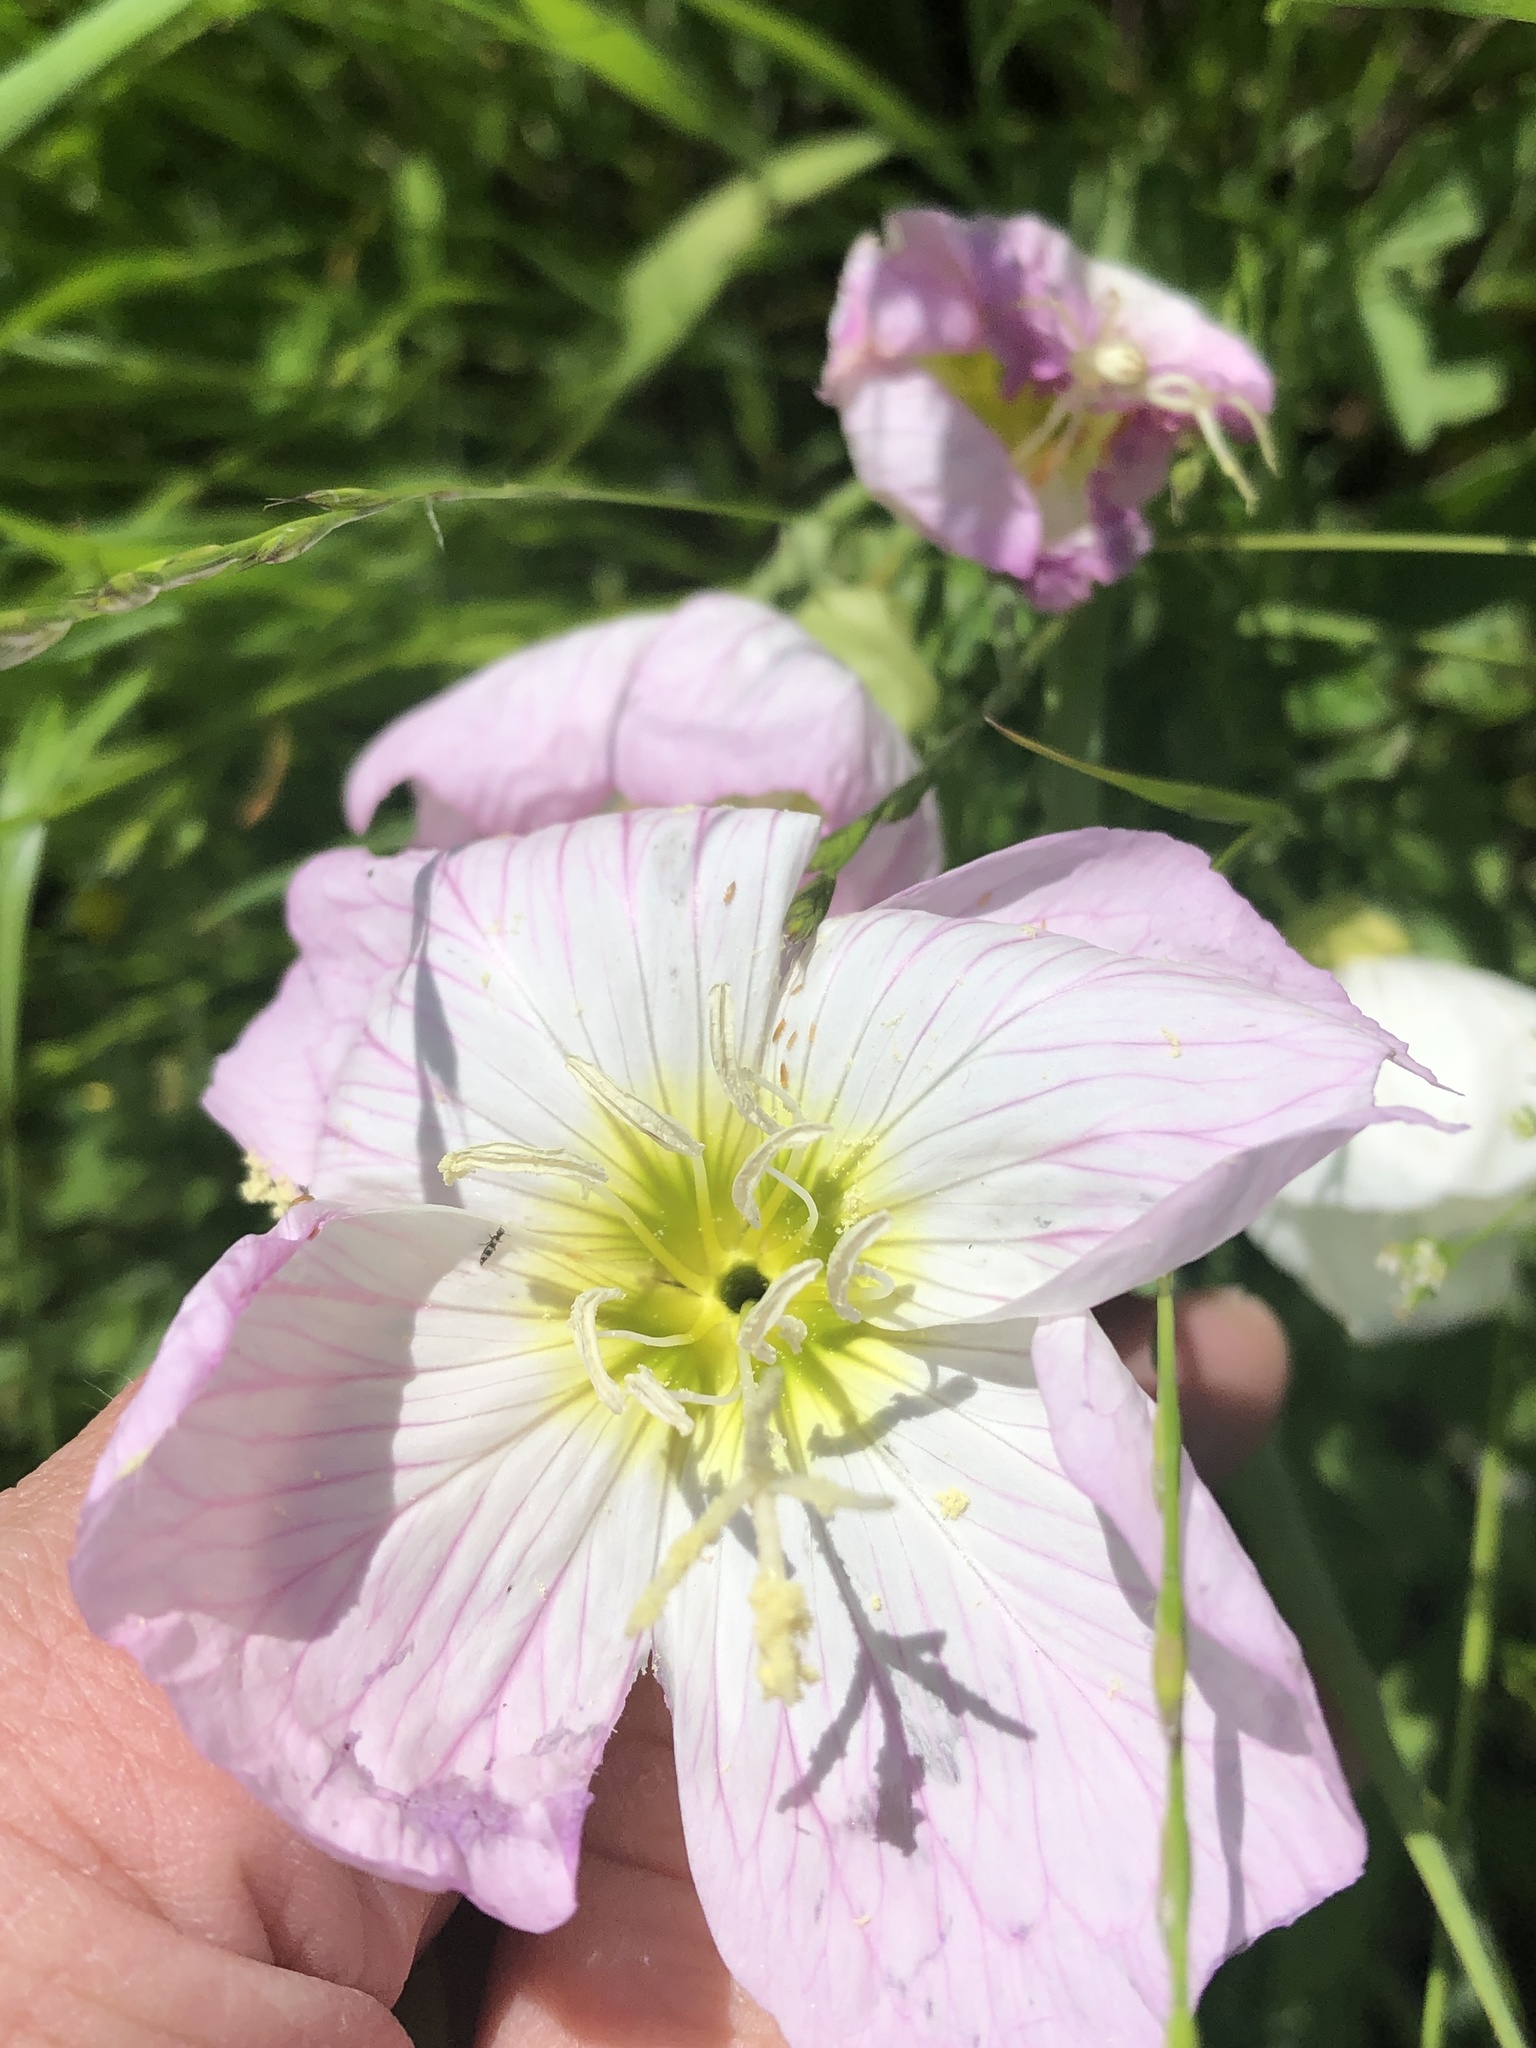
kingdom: Plantae
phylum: Tracheophyta
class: Magnoliopsida
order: Myrtales
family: Onagraceae
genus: Oenothera
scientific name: Oenothera speciosa
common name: White evening-primrose
